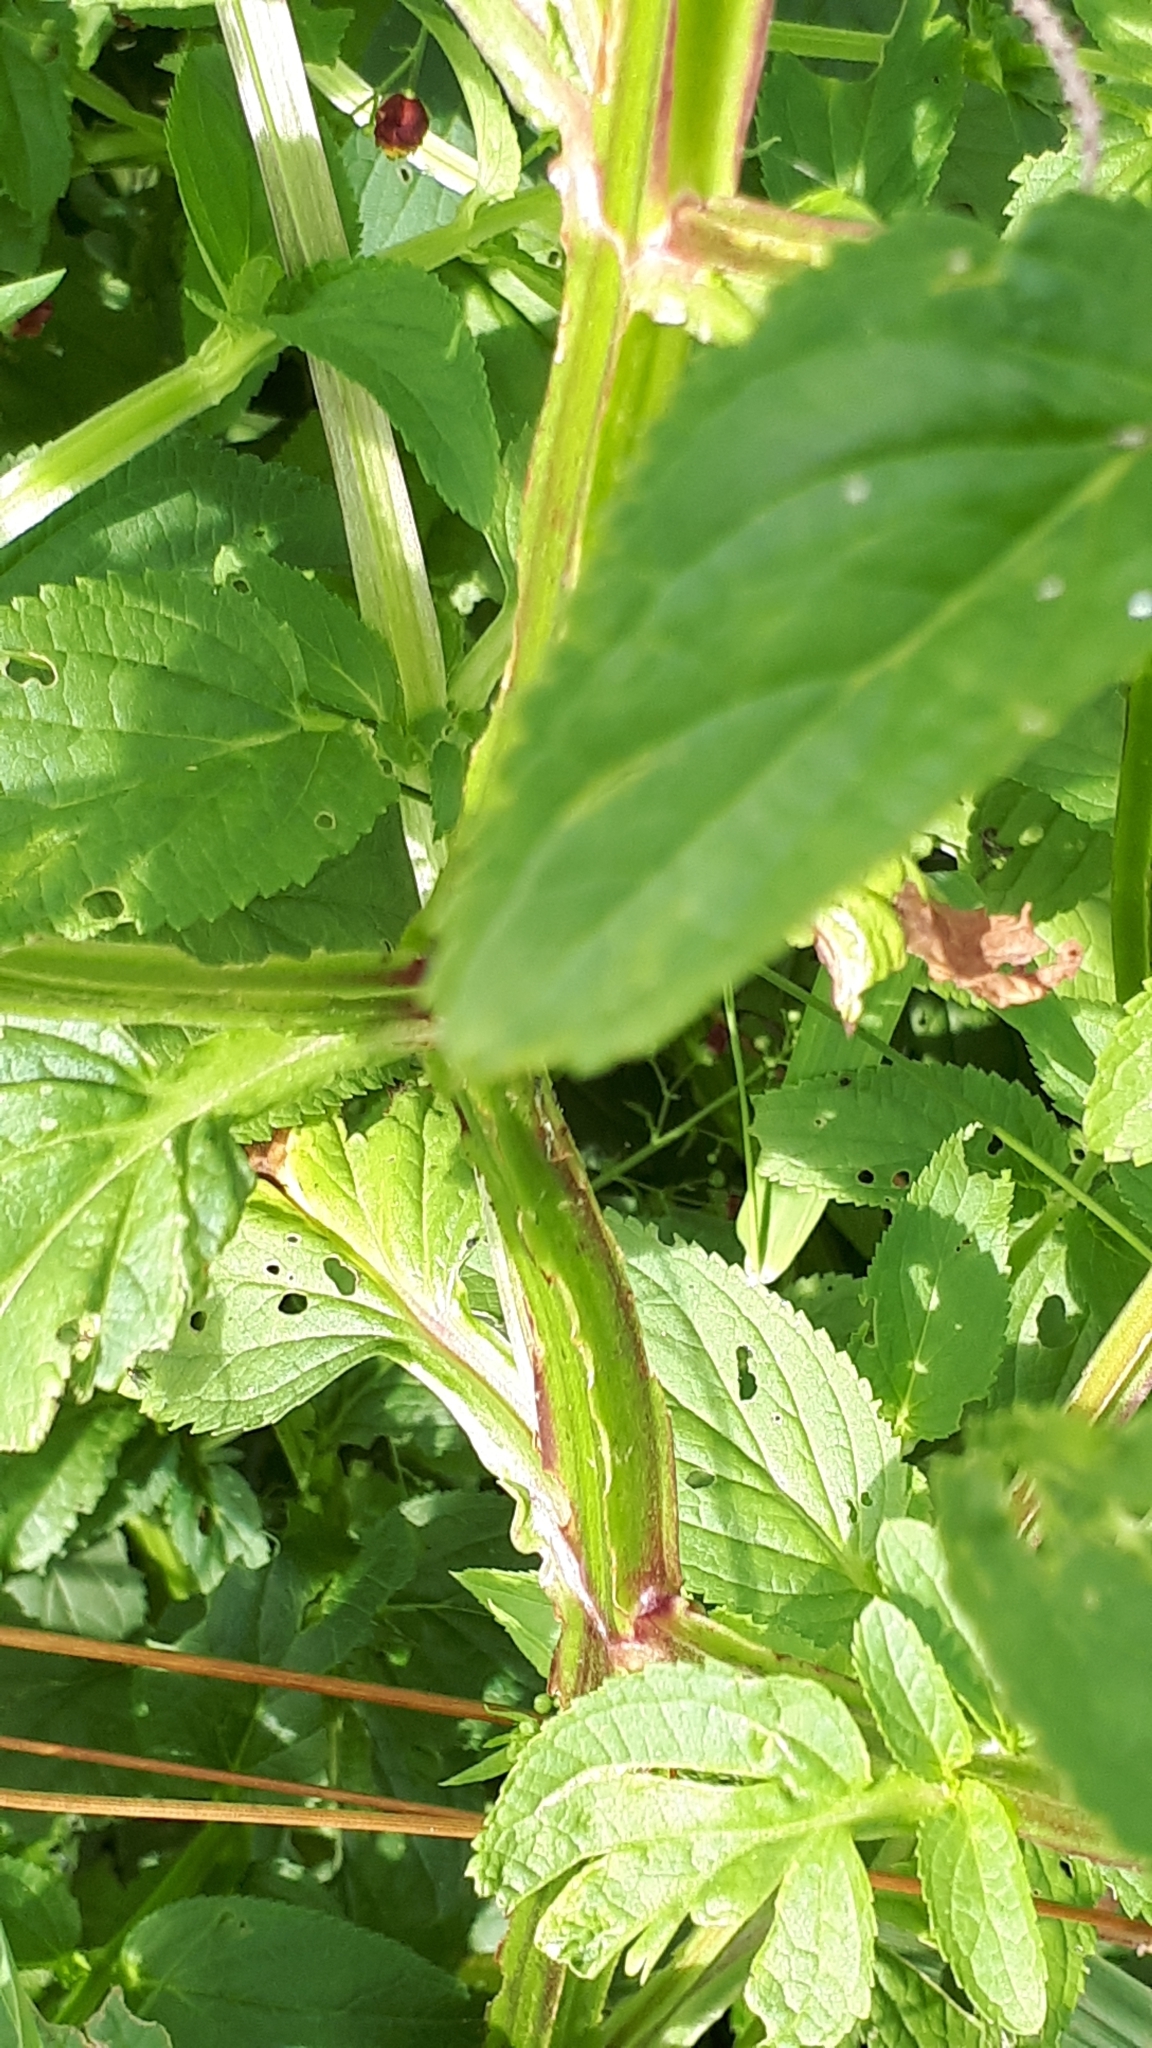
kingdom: Plantae
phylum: Tracheophyta
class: Magnoliopsida
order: Lamiales
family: Scrophulariaceae
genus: Scrophularia
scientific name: Scrophularia umbrosa
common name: Green figwort
